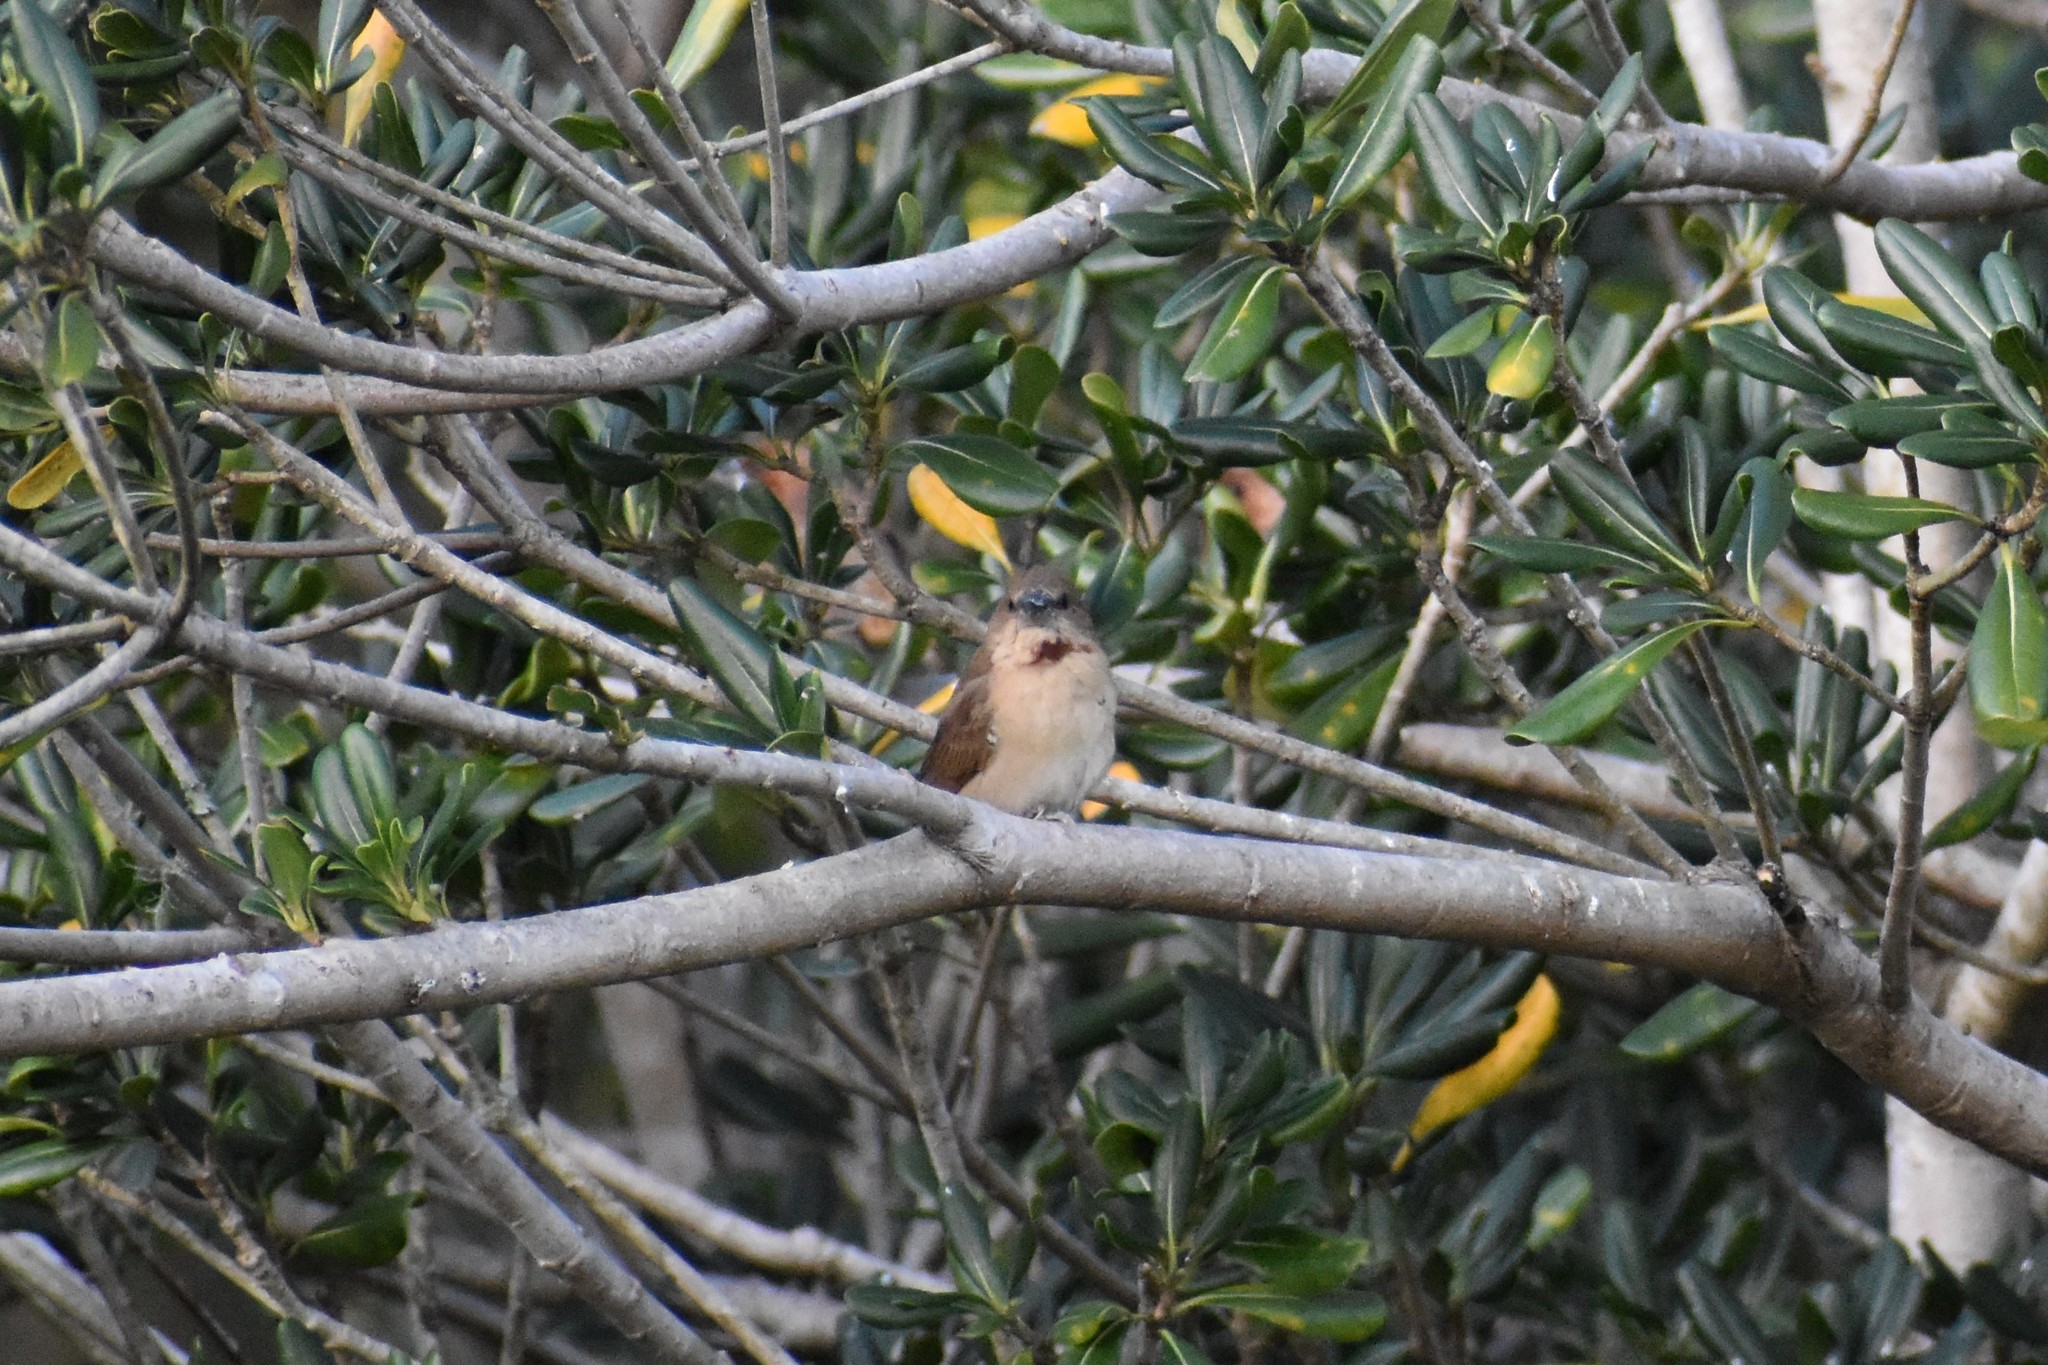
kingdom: Animalia
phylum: Chordata
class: Aves
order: Passeriformes
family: Estrildidae
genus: Lonchura
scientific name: Lonchura punctulata
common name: Scaly-breasted munia
